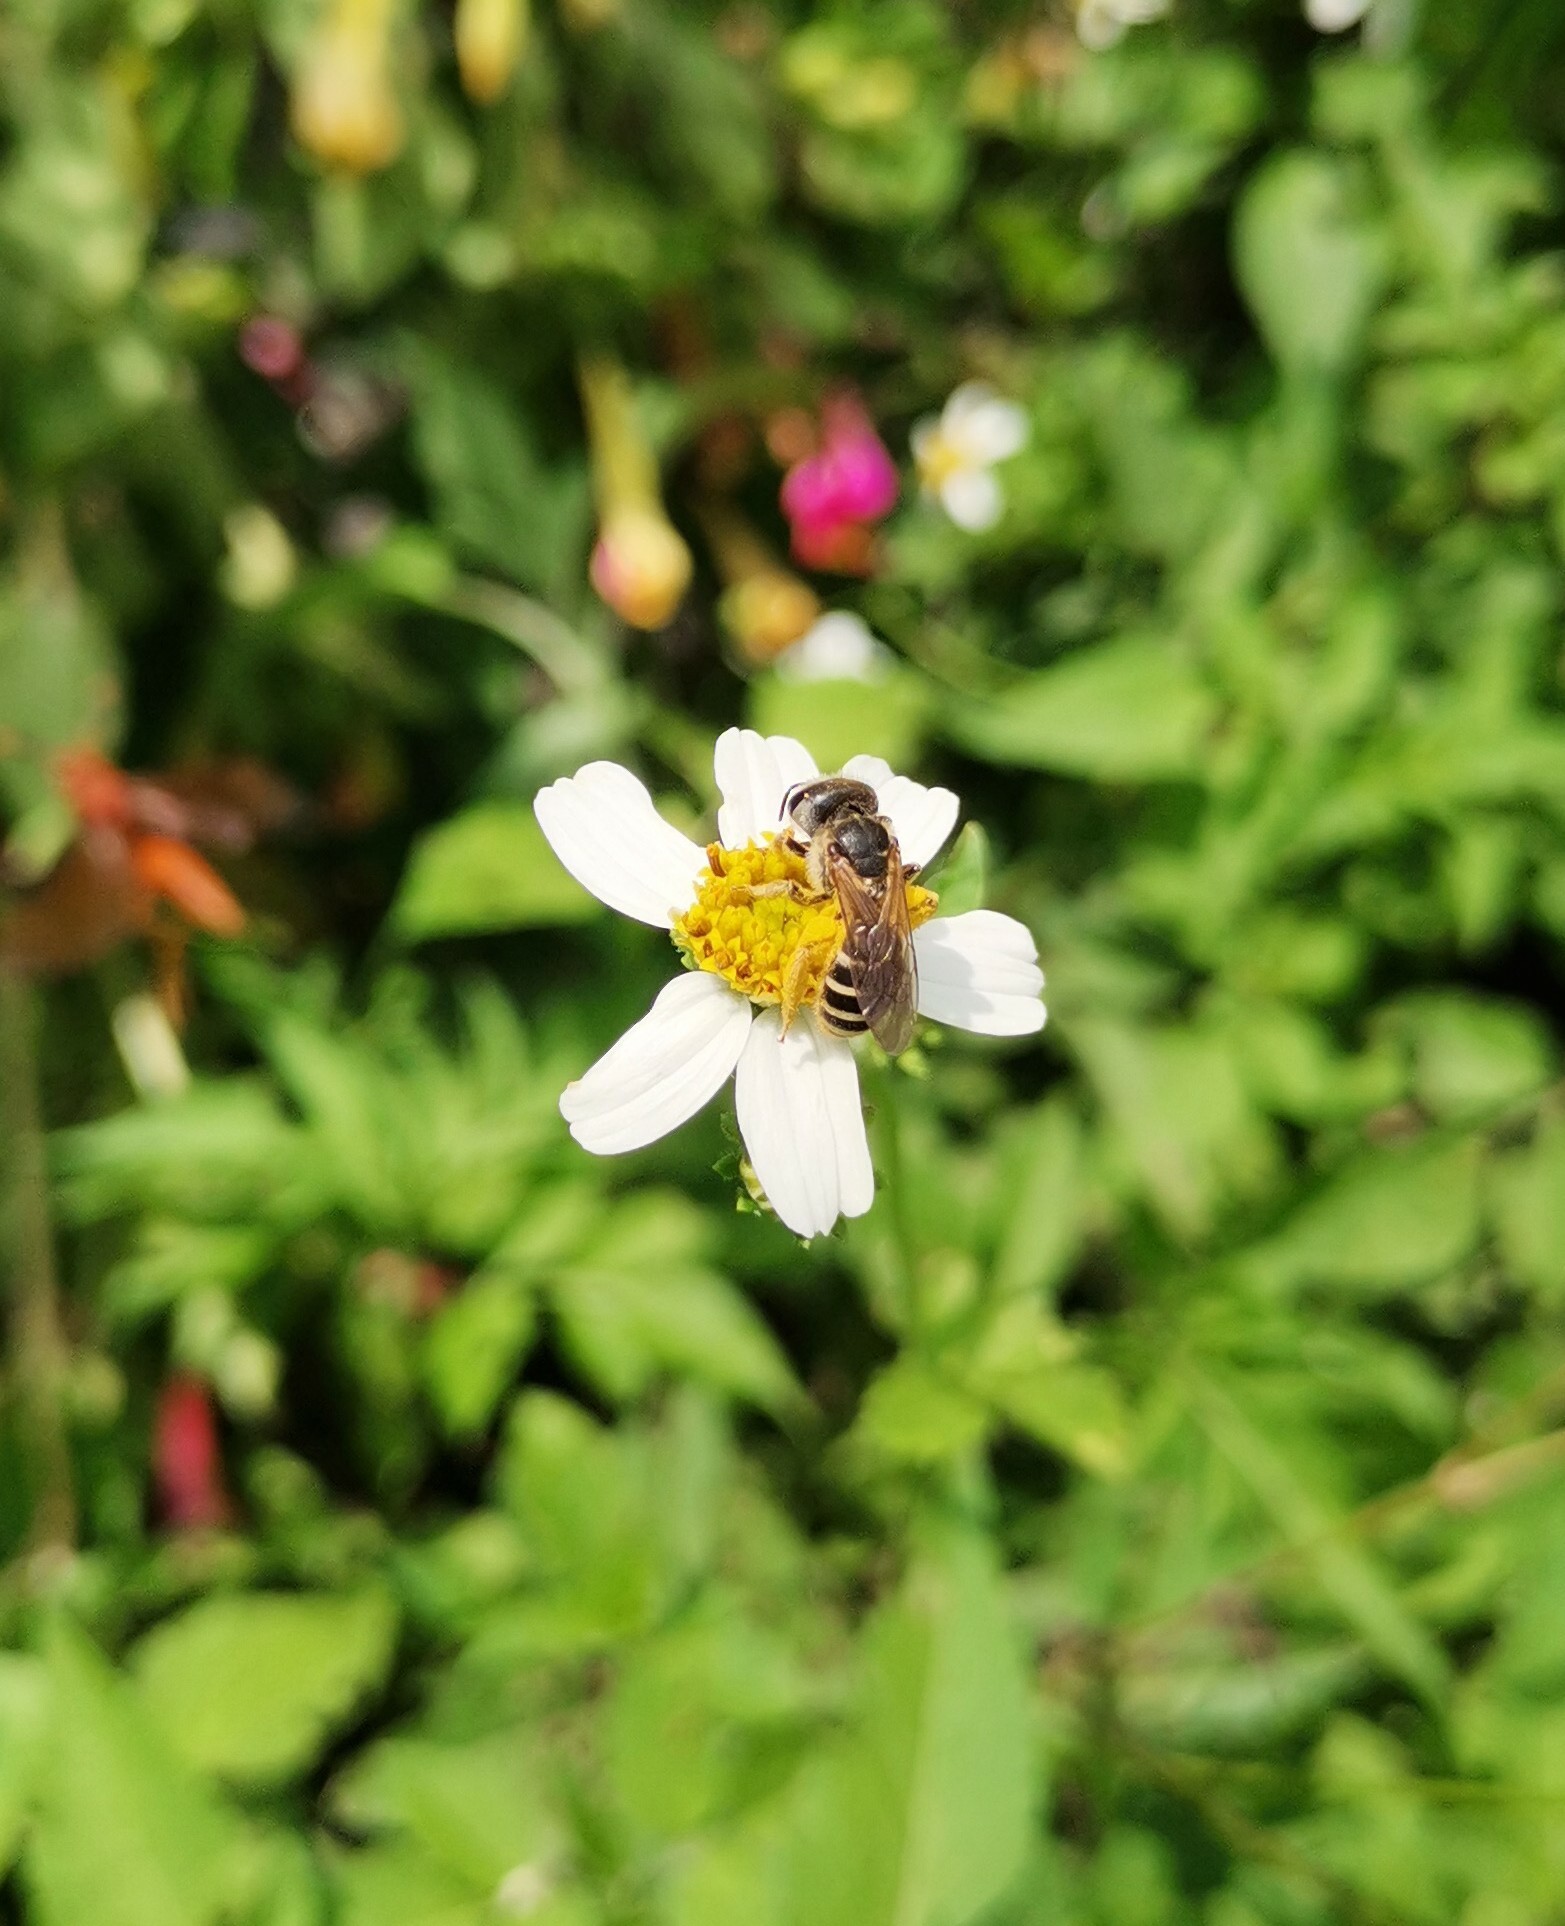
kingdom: Animalia
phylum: Arthropoda
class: Insecta
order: Hymenoptera
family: Halictidae
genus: Halictus
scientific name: Halictus ligatus
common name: Ligated furrow bee
